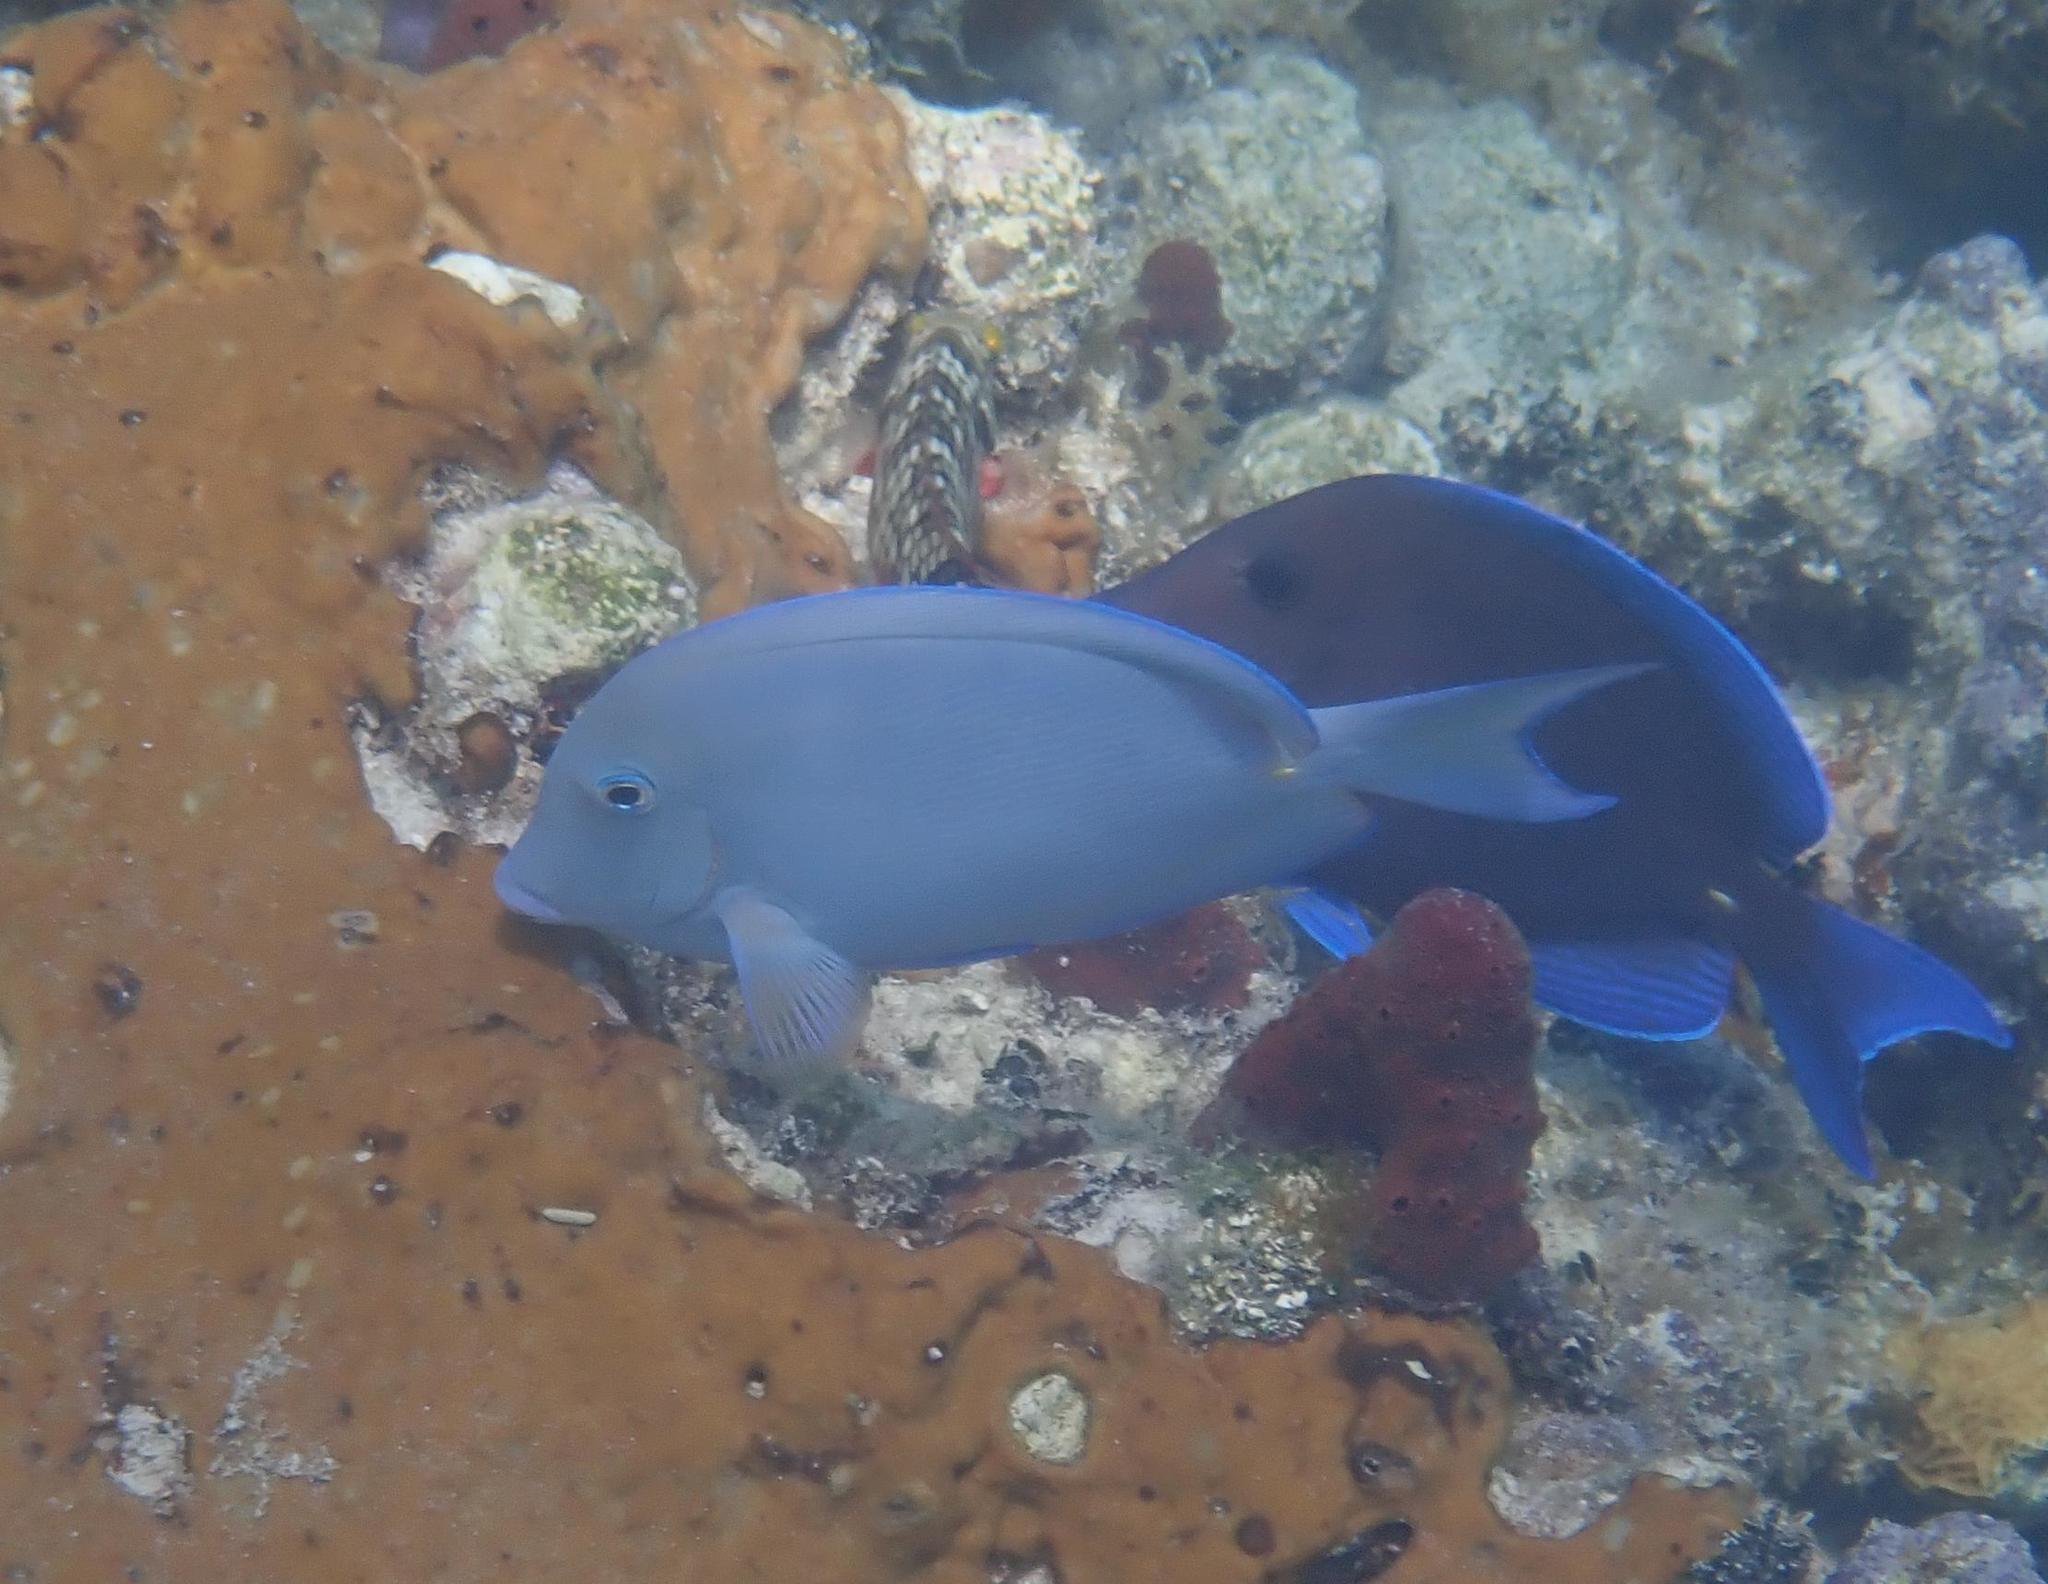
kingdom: Animalia
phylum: Chordata
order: Perciformes
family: Acanthuridae
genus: Acanthurus
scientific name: Acanthurus coeruleus
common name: Blue tang
